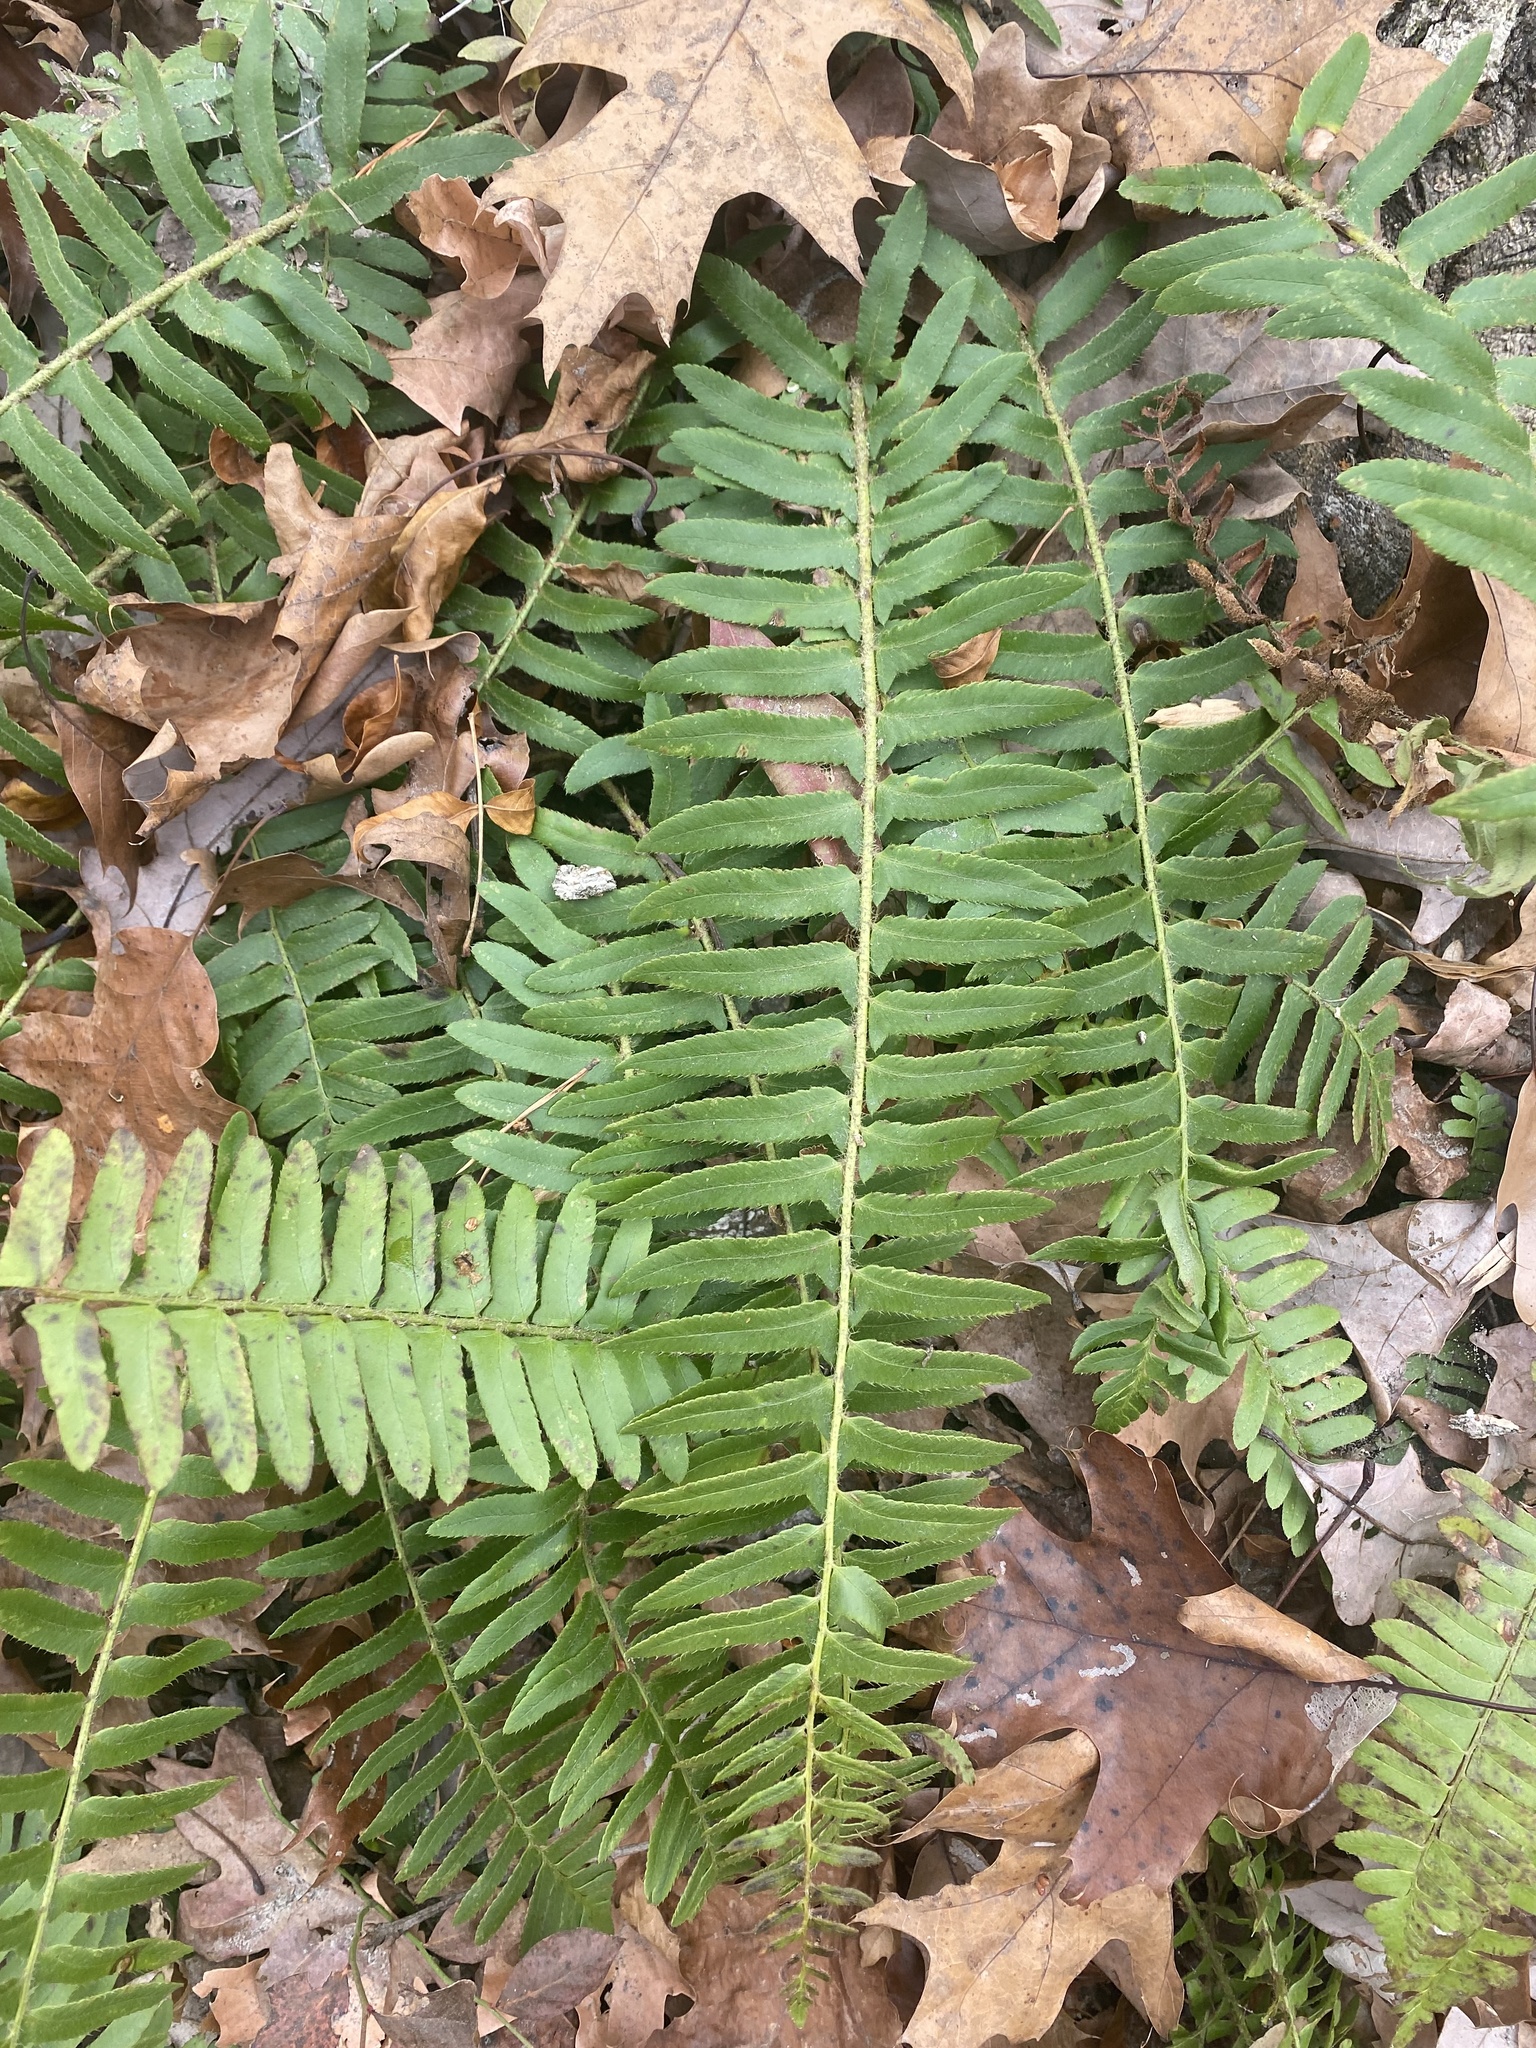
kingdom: Plantae
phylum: Tracheophyta
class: Polypodiopsida
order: Polypodiales
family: Dryopteridaceae
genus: Polystichum
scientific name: Polystichum acrostichoides
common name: Christmas fern
